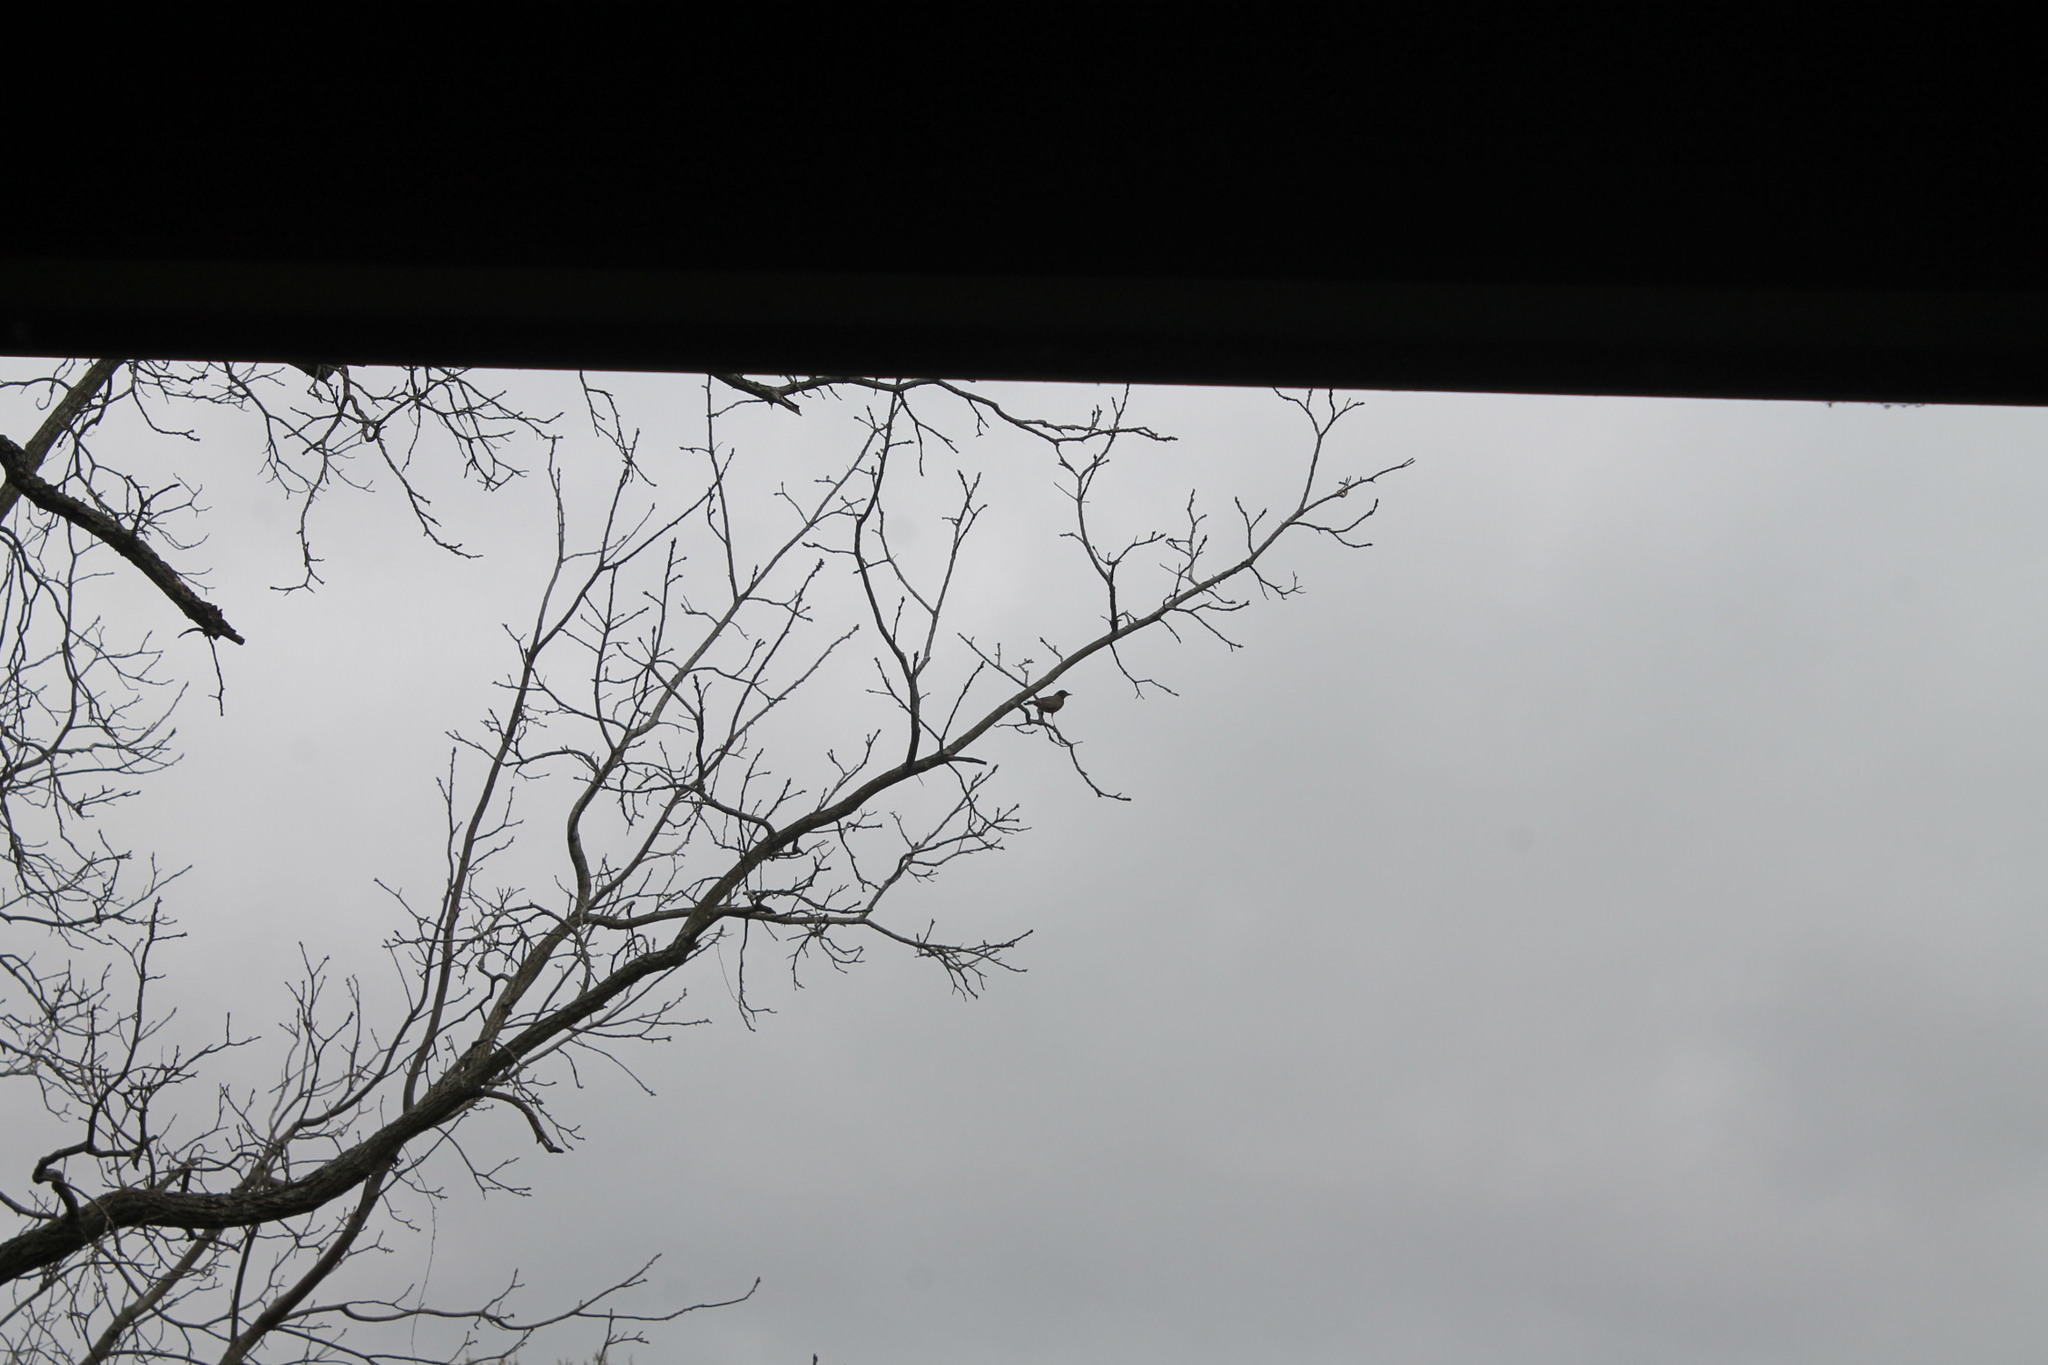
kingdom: Animalia
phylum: Chordata
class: Aves
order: Passeriformes
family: Turdidae
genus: Turdus
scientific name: Turdus migratorius
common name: American robin
